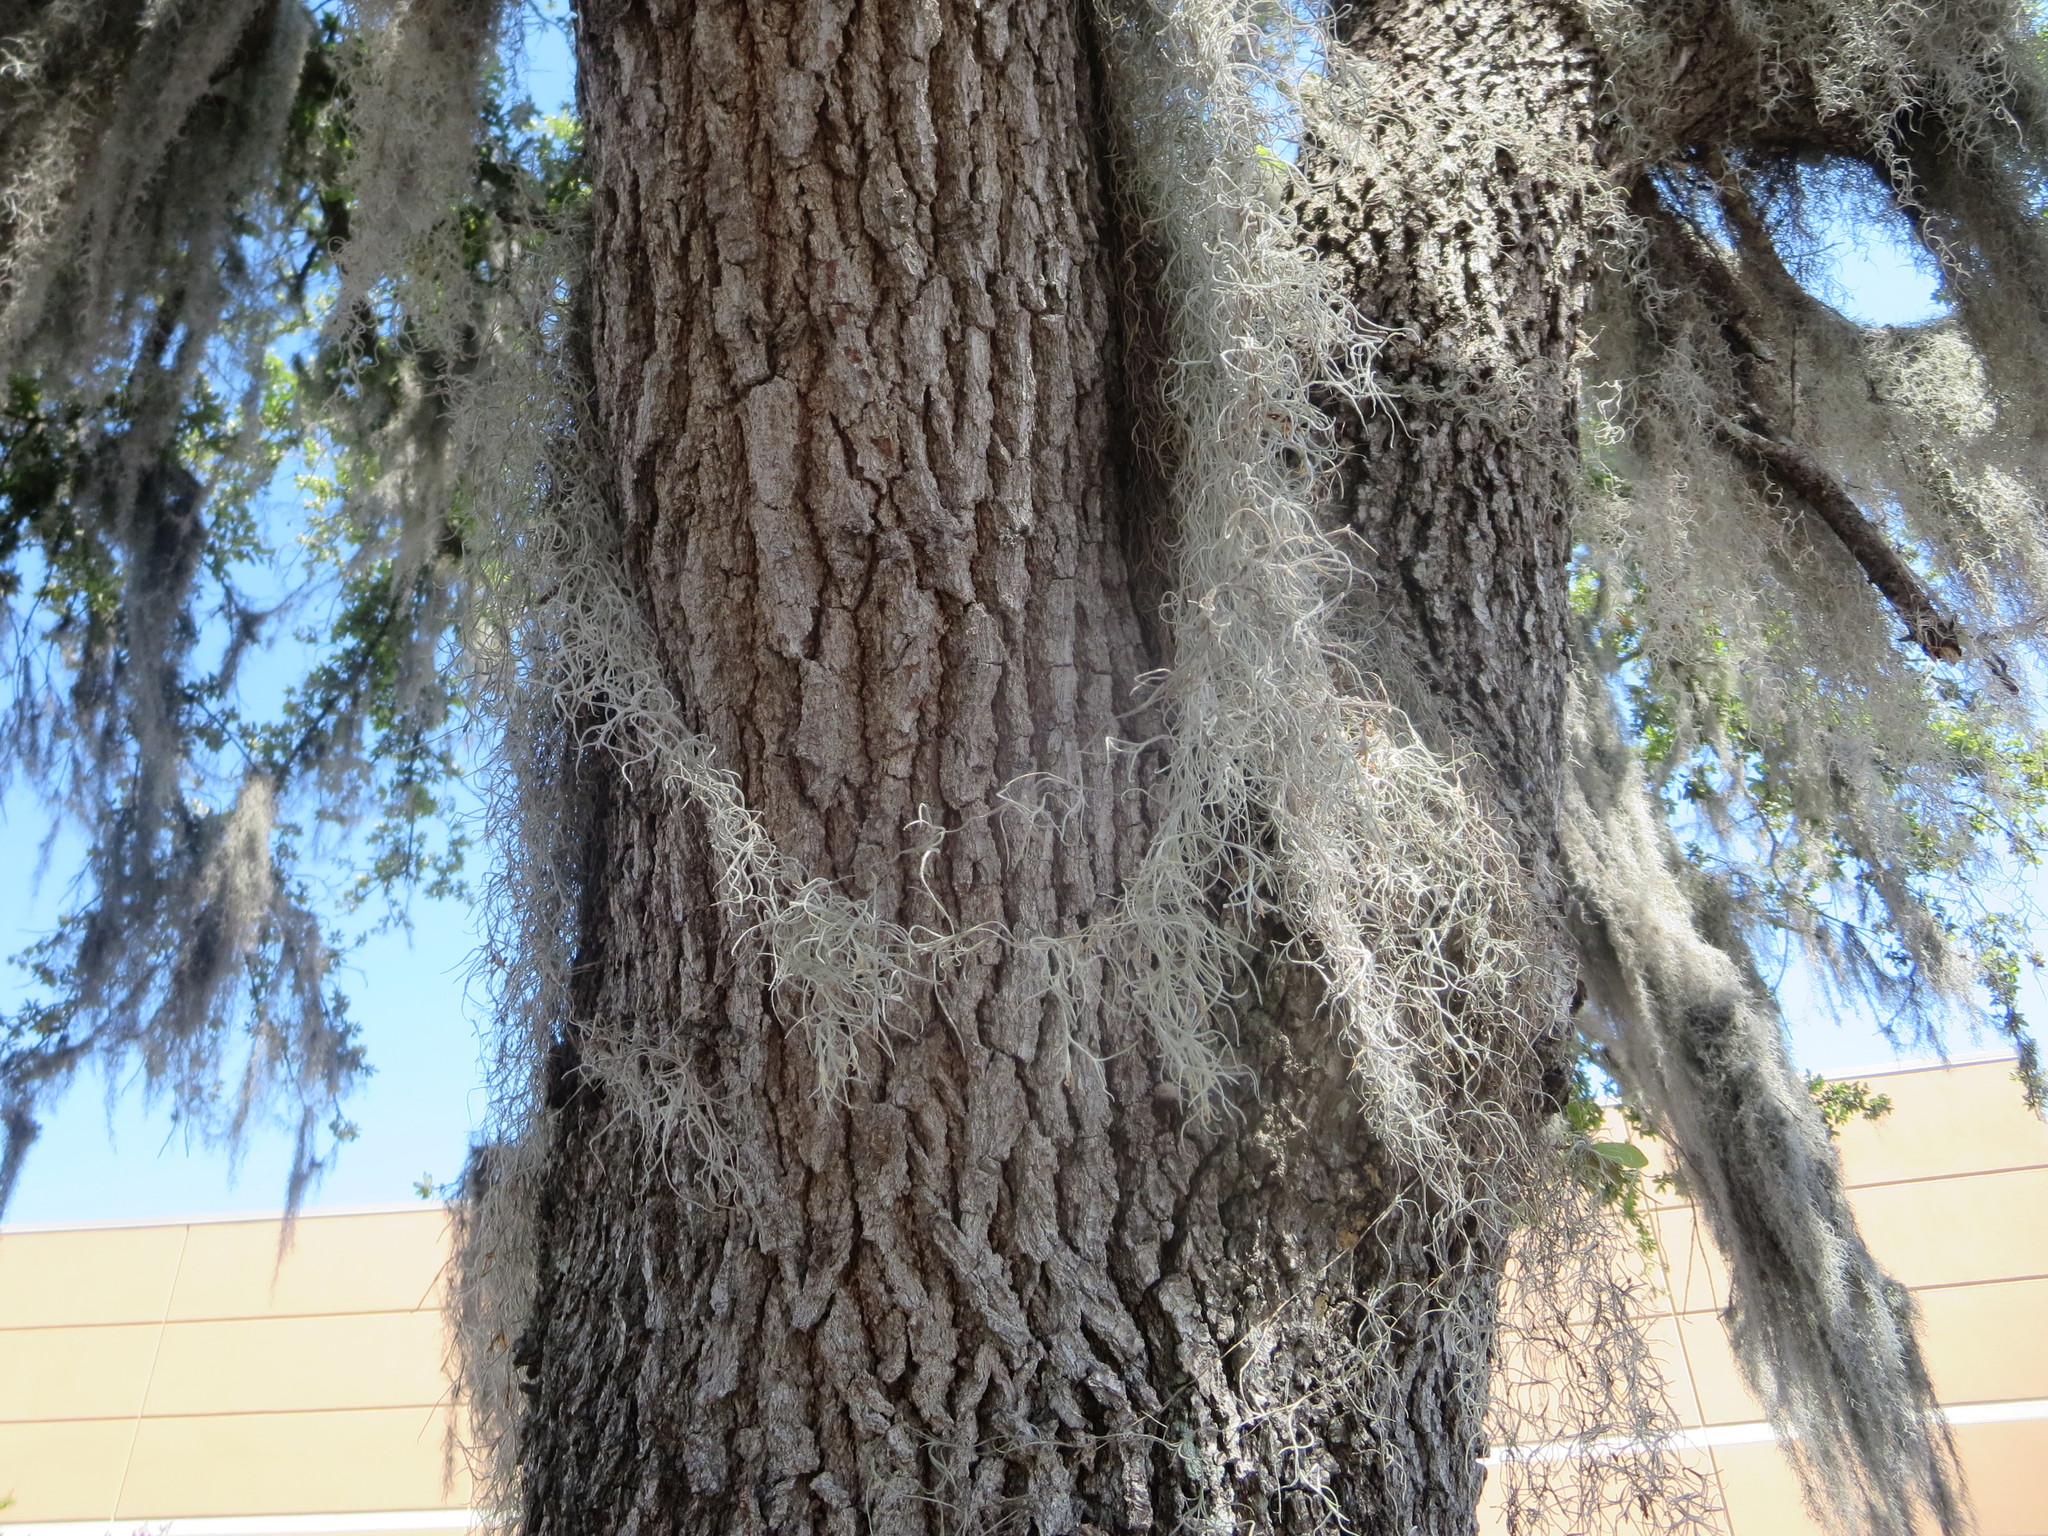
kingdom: Plantae
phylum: Tracheophyta
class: Liliopsida
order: Poales
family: Bromeliaceae
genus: Tillandsia
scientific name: Tillandsia usneoides
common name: Spanish moss
